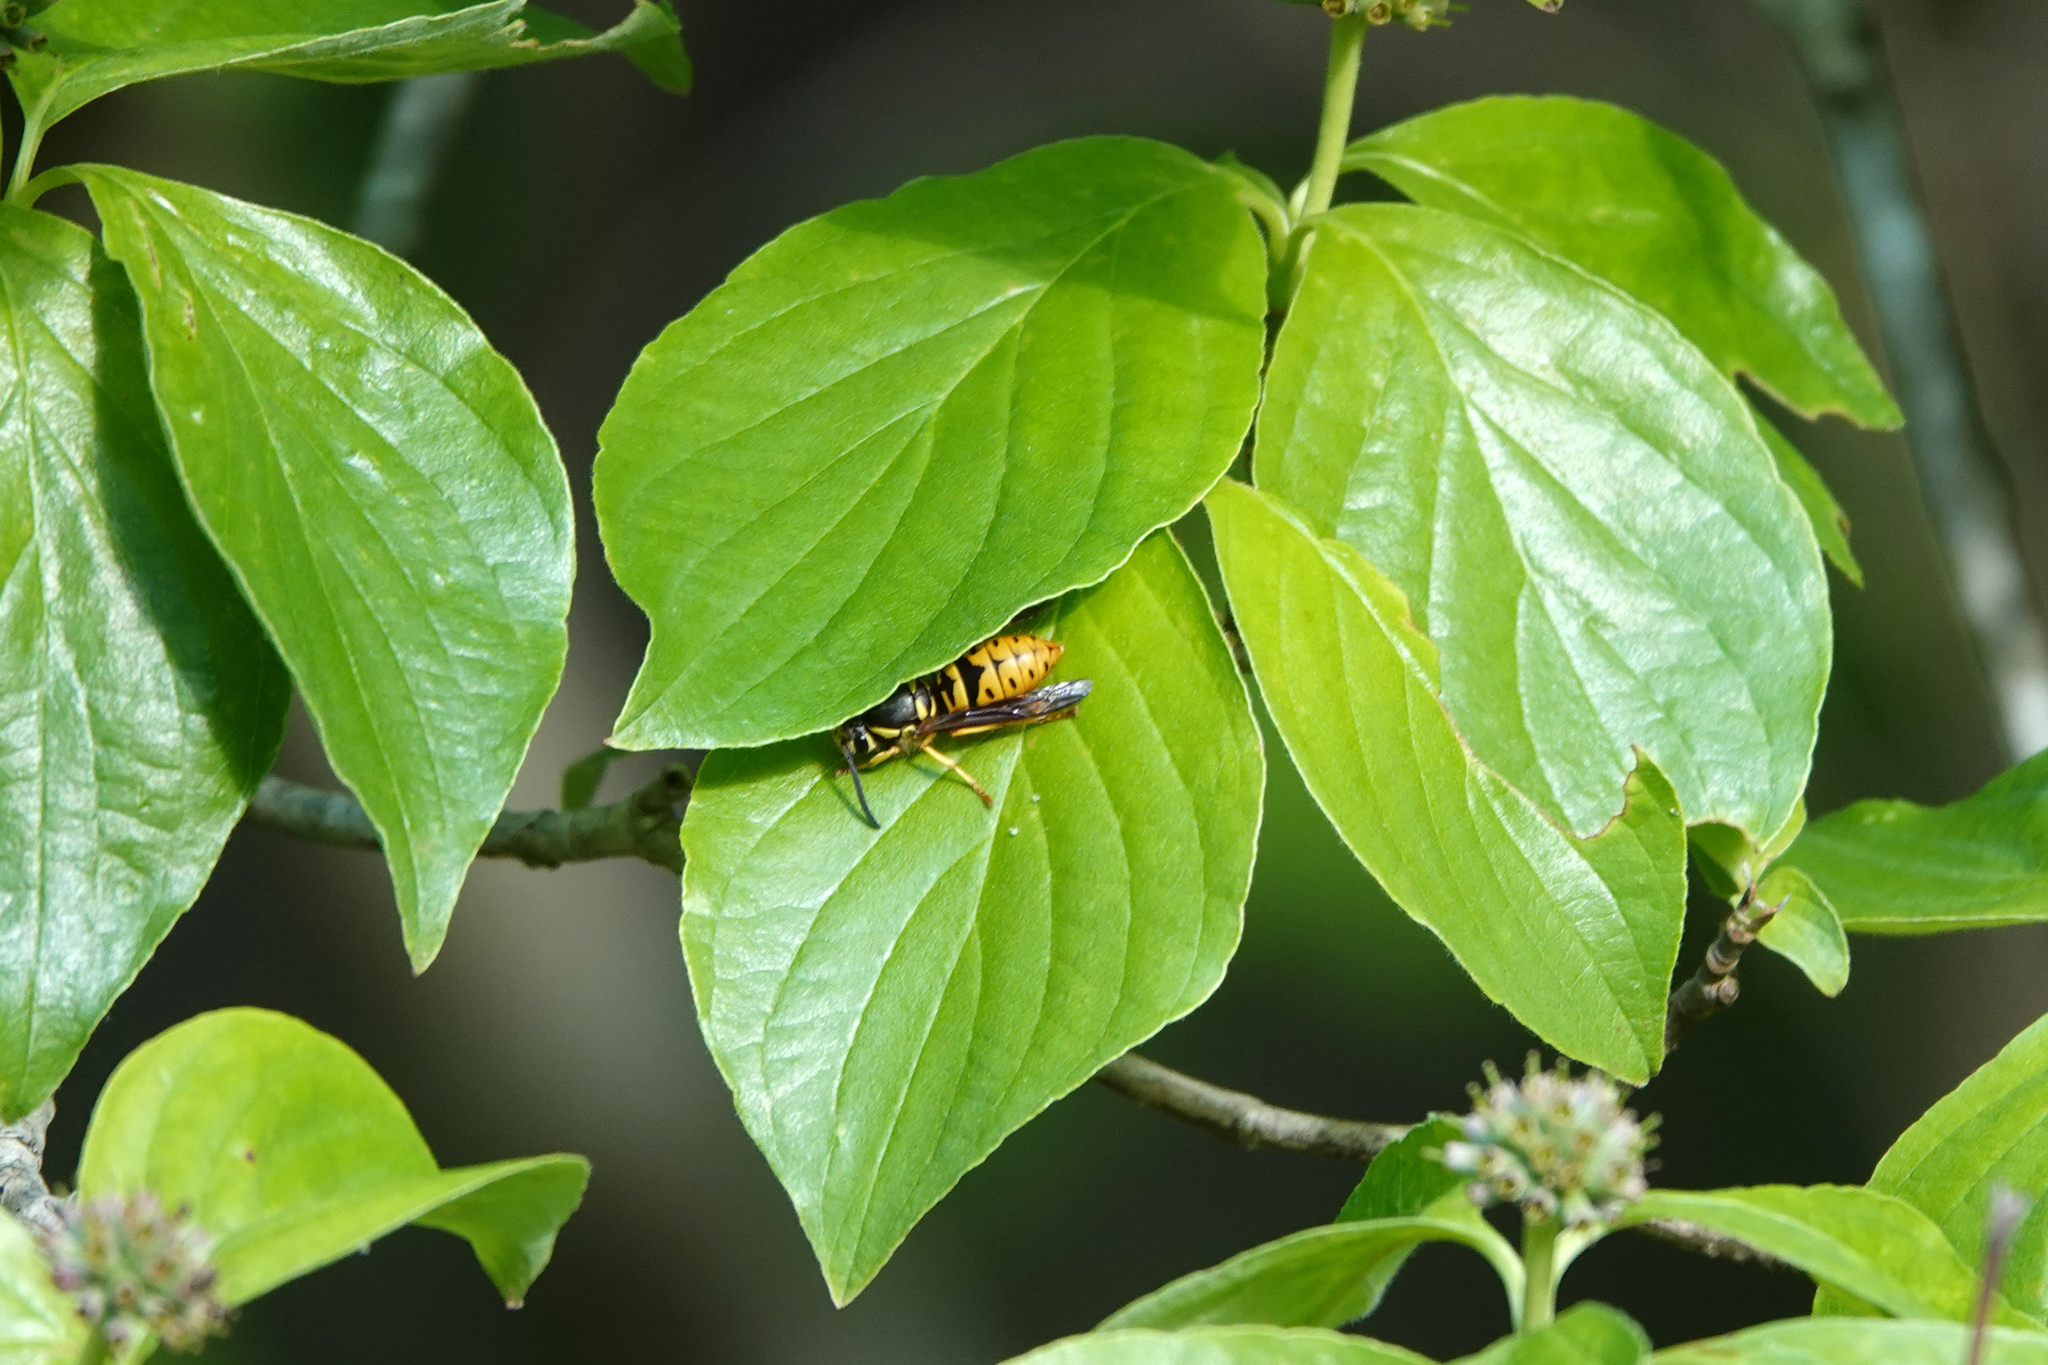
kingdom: Animalia
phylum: Arthropoda
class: Insecta
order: Hymenoptera
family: Vespidae
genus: Vespula
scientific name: Vespula maculifrons
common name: Eastern yellowjacket
